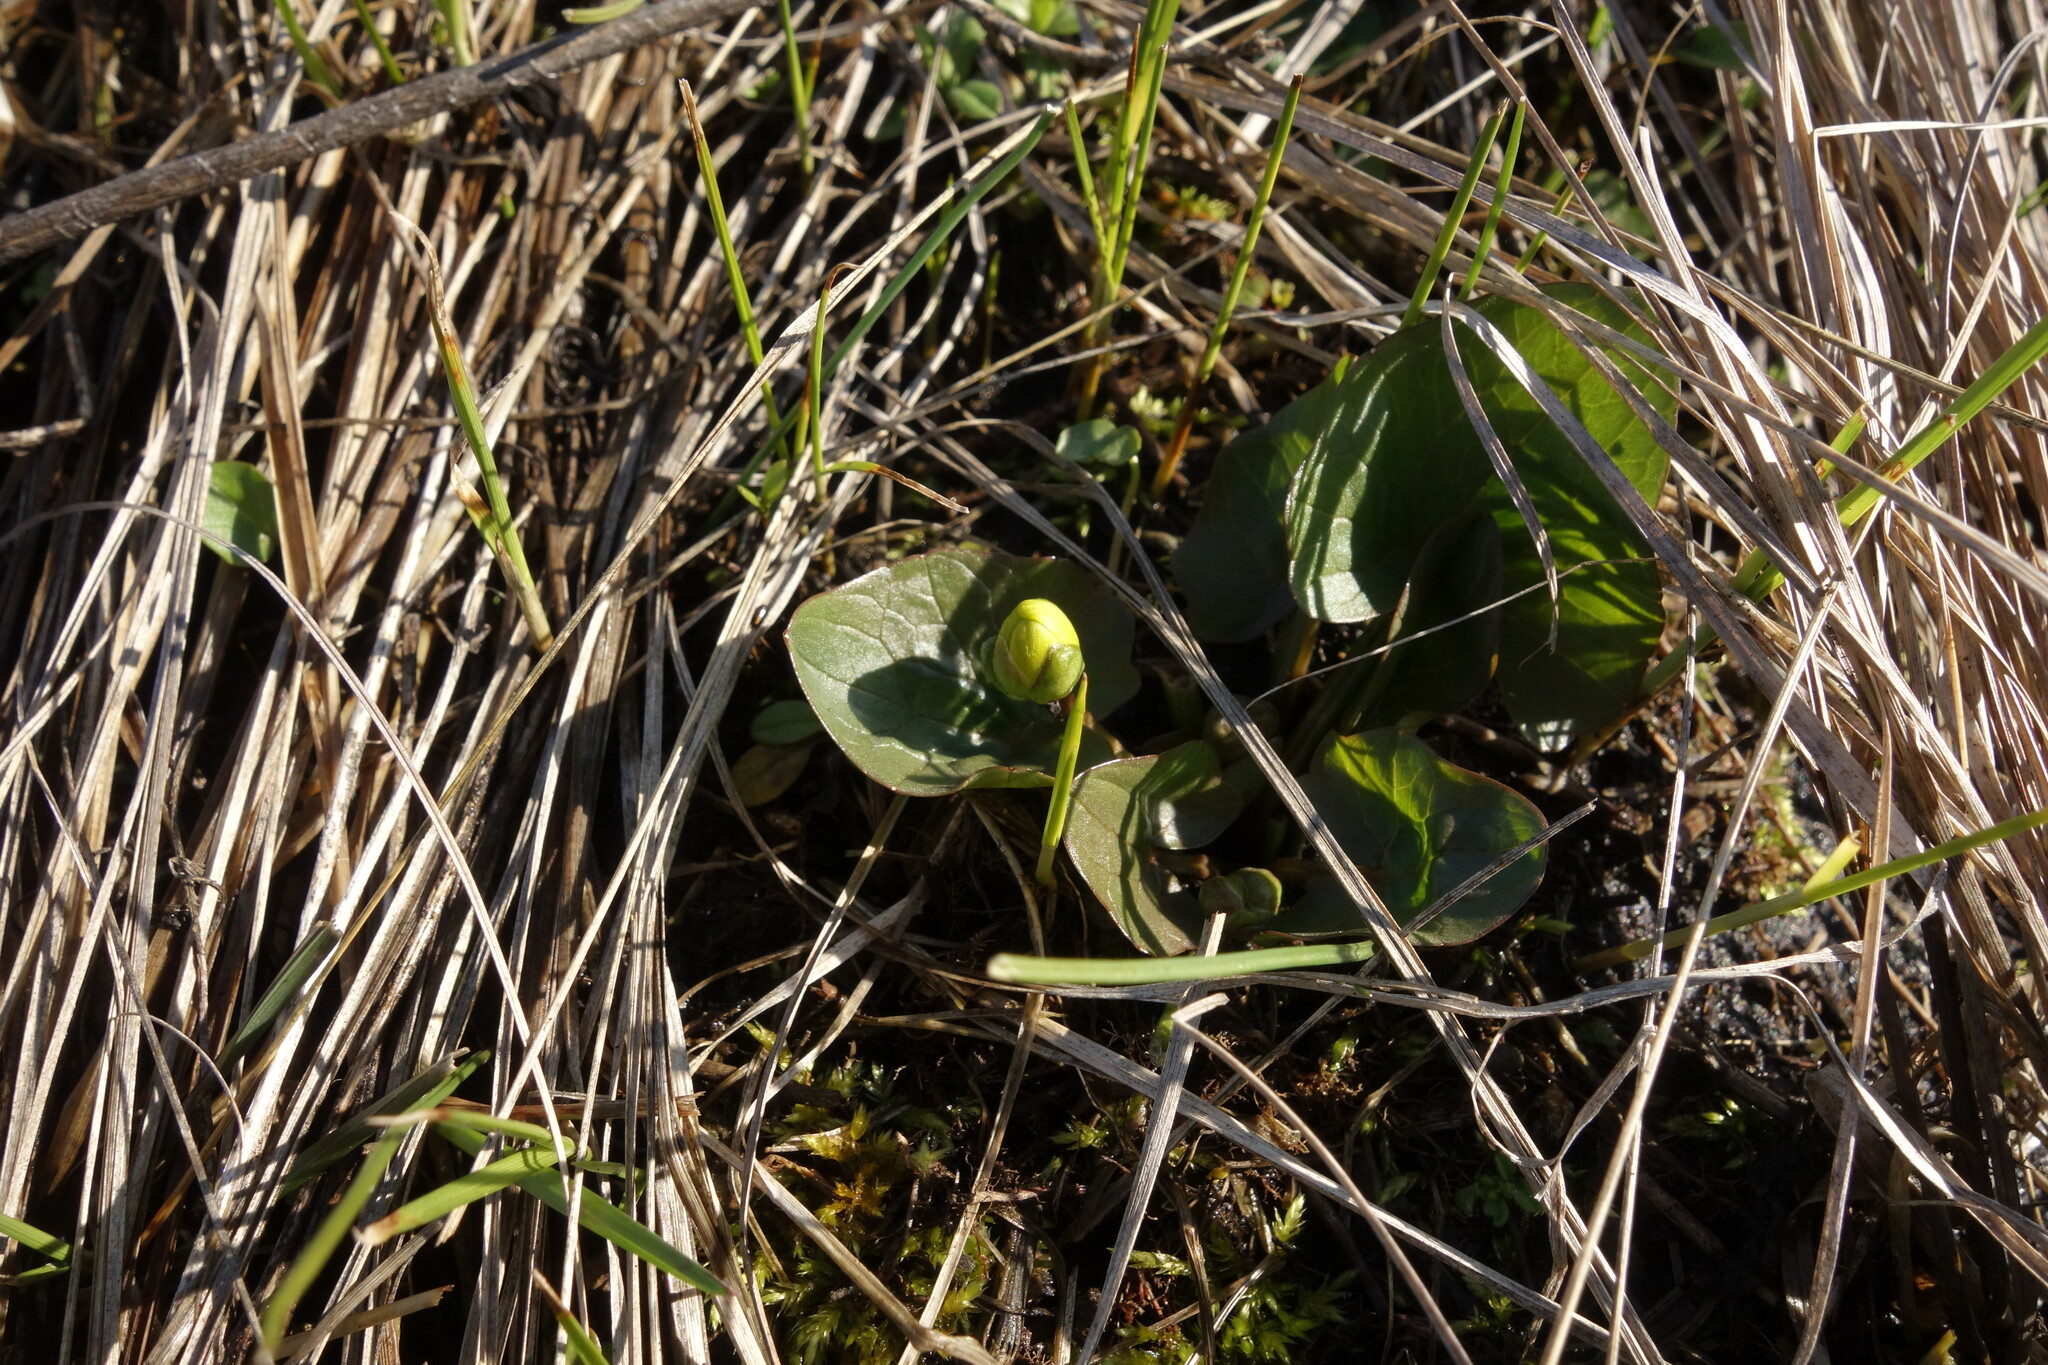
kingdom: Plantae
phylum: Tracheophyta
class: Magnoliopsida
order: Ranunculales
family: Ranunculaceae
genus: Ficaria
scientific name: Ficaria verna
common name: Lesser celandine
